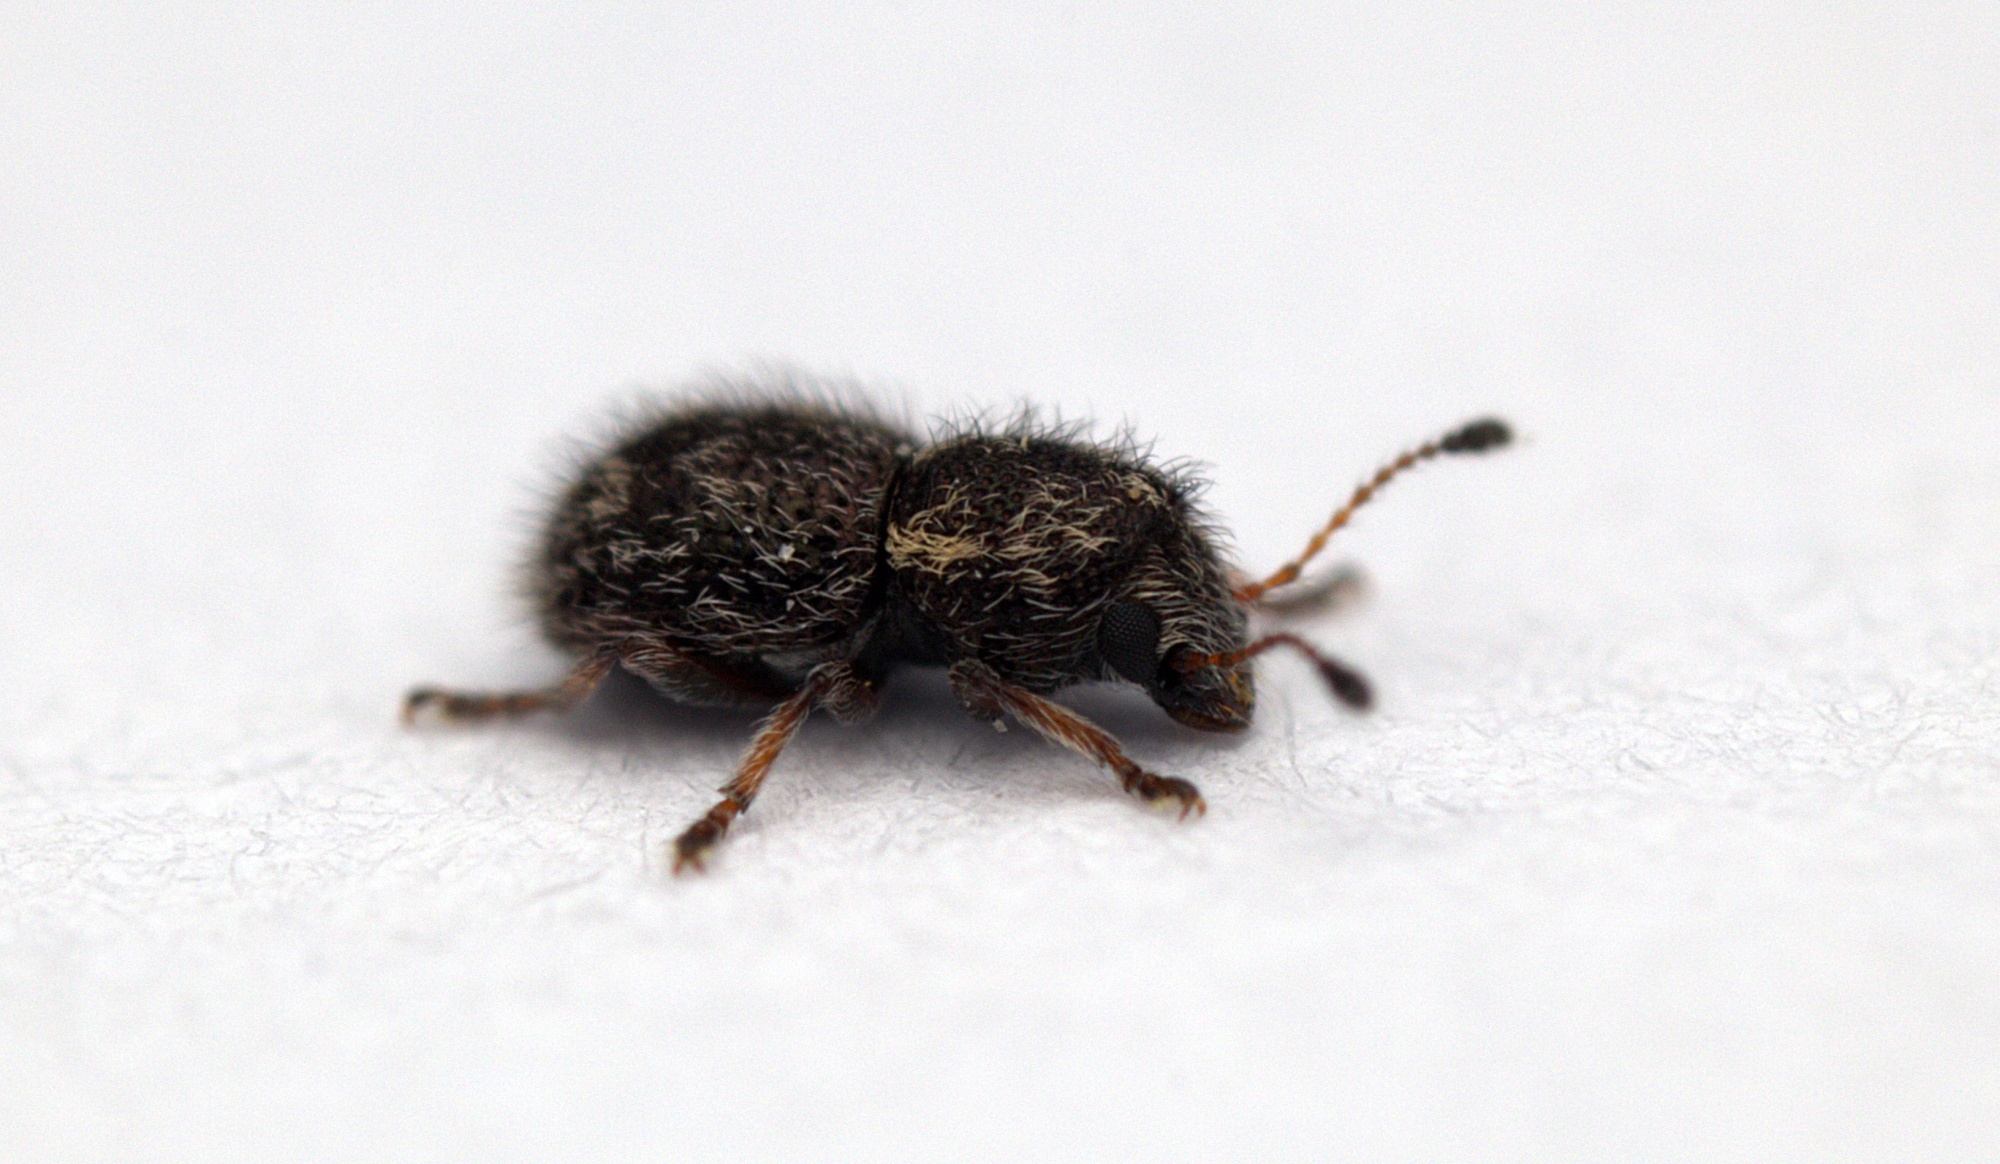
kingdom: Animalia
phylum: Arthropoda
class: Insecta
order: Coleoptera
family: Anthribidae
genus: Dasyanthribus
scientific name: Dasyanthribus purpureus
